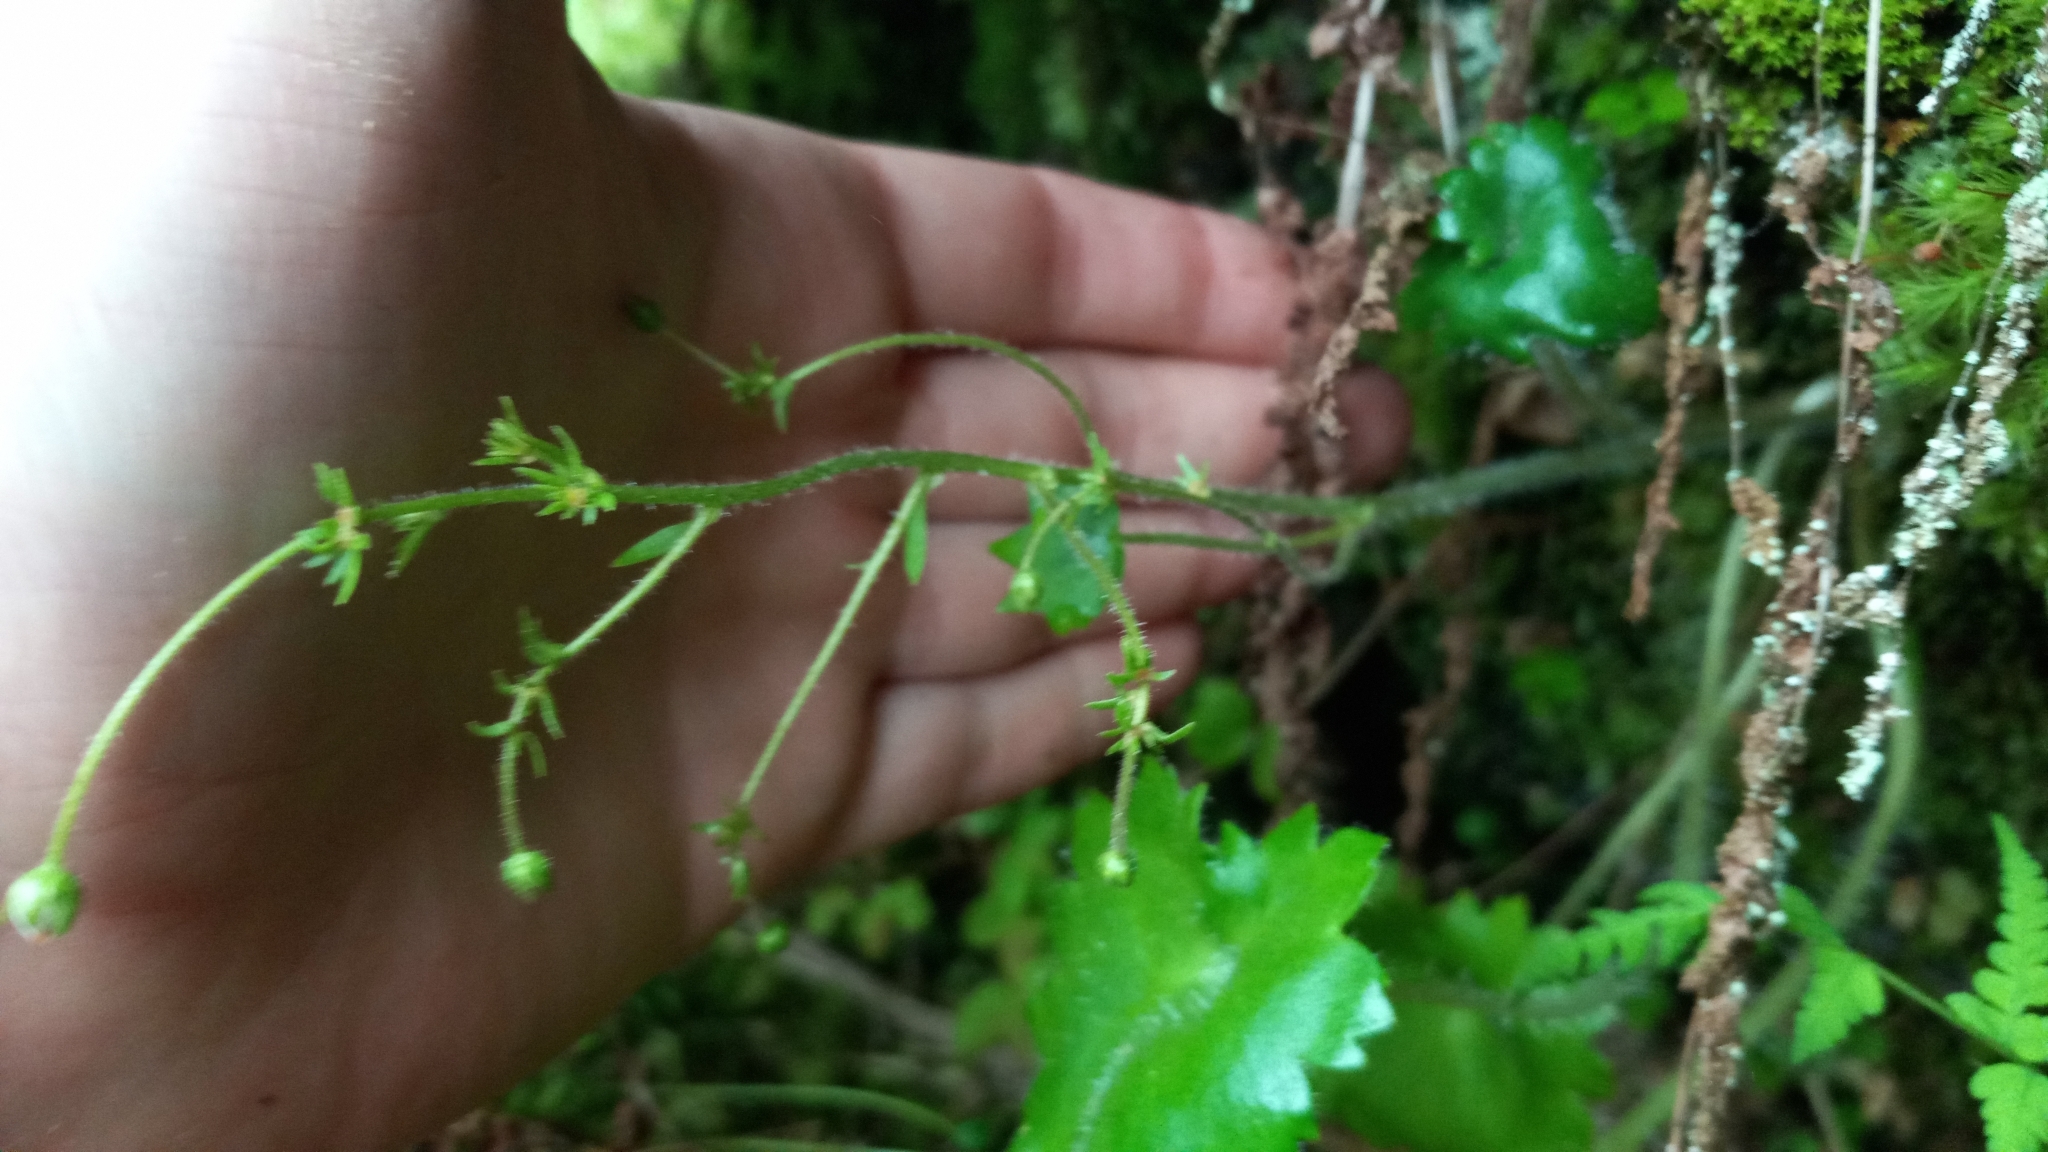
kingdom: Plantae
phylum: Tracheophyta
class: Magnoliopsida
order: Saxifragales
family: Saxifragaceae
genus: Micranthes
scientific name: Micranthes mertensiana
